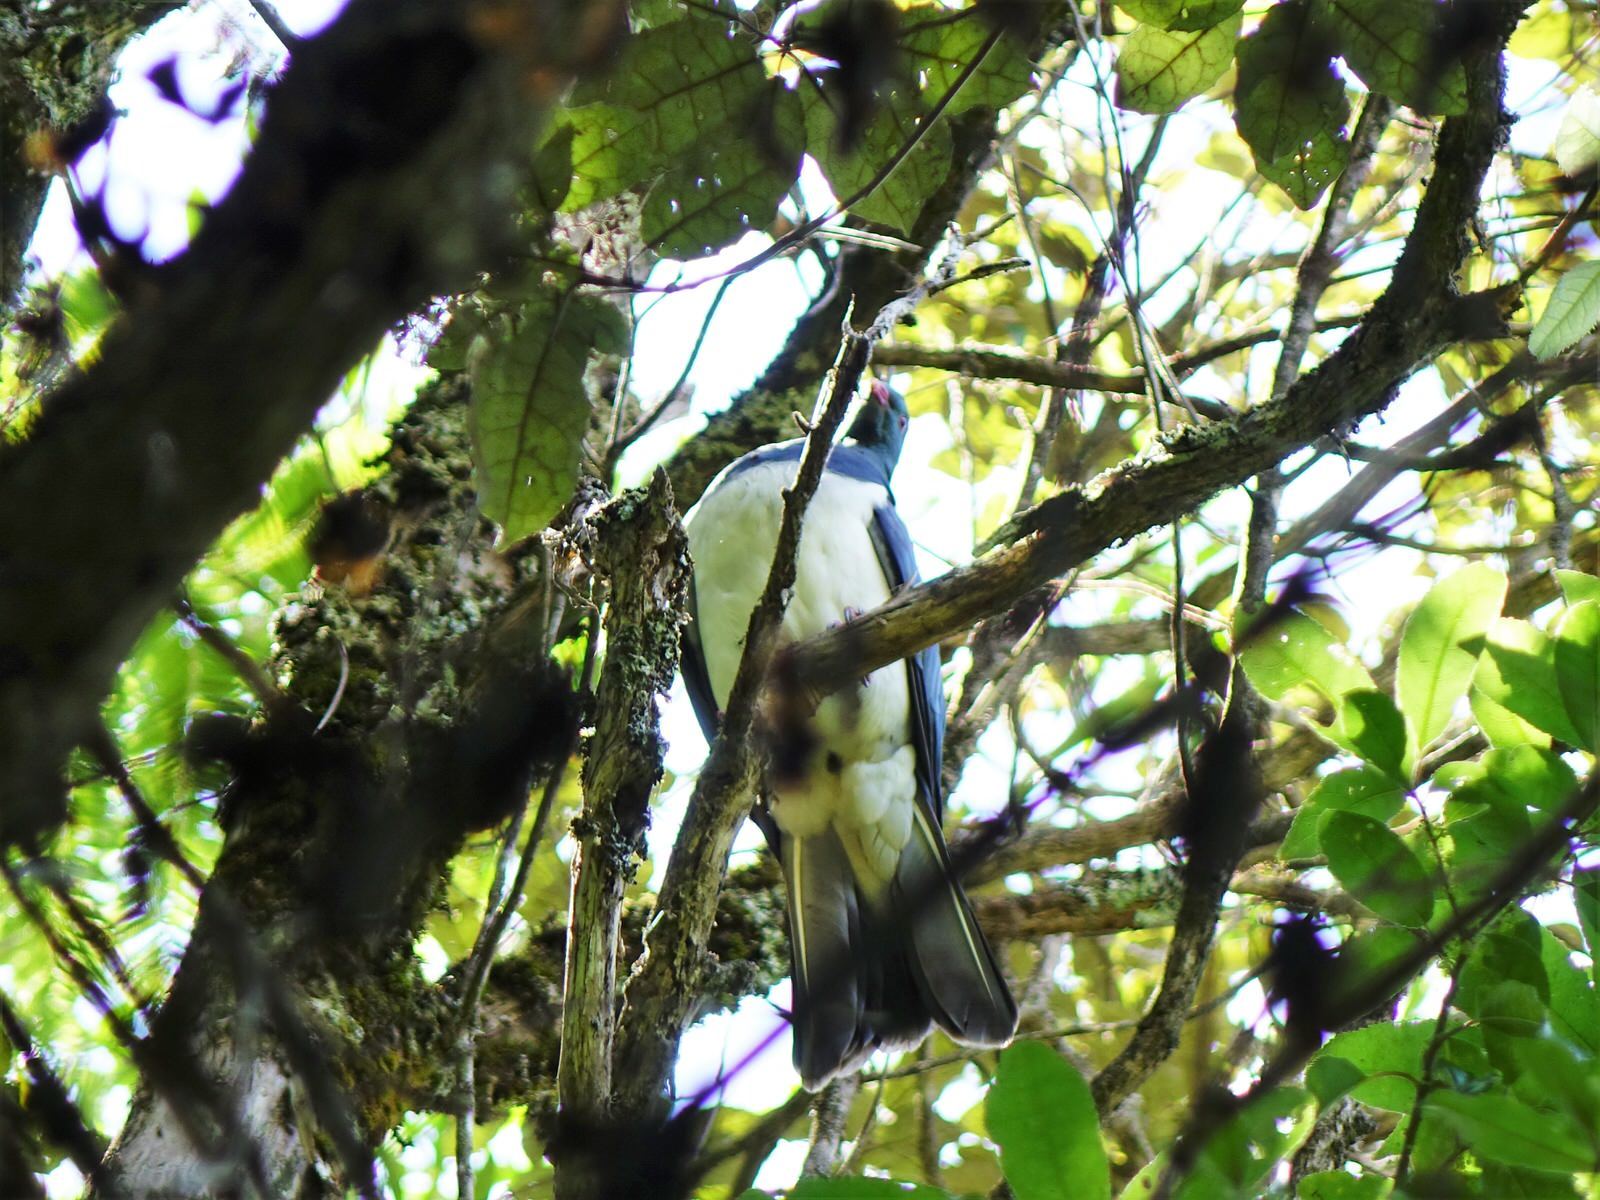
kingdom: Animalia
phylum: Chordata
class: Aves
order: Columbiformes
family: Columbidae
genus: Hemiphaga
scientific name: Hemiphaga novaeseelandiae
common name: New zealand pigeon
